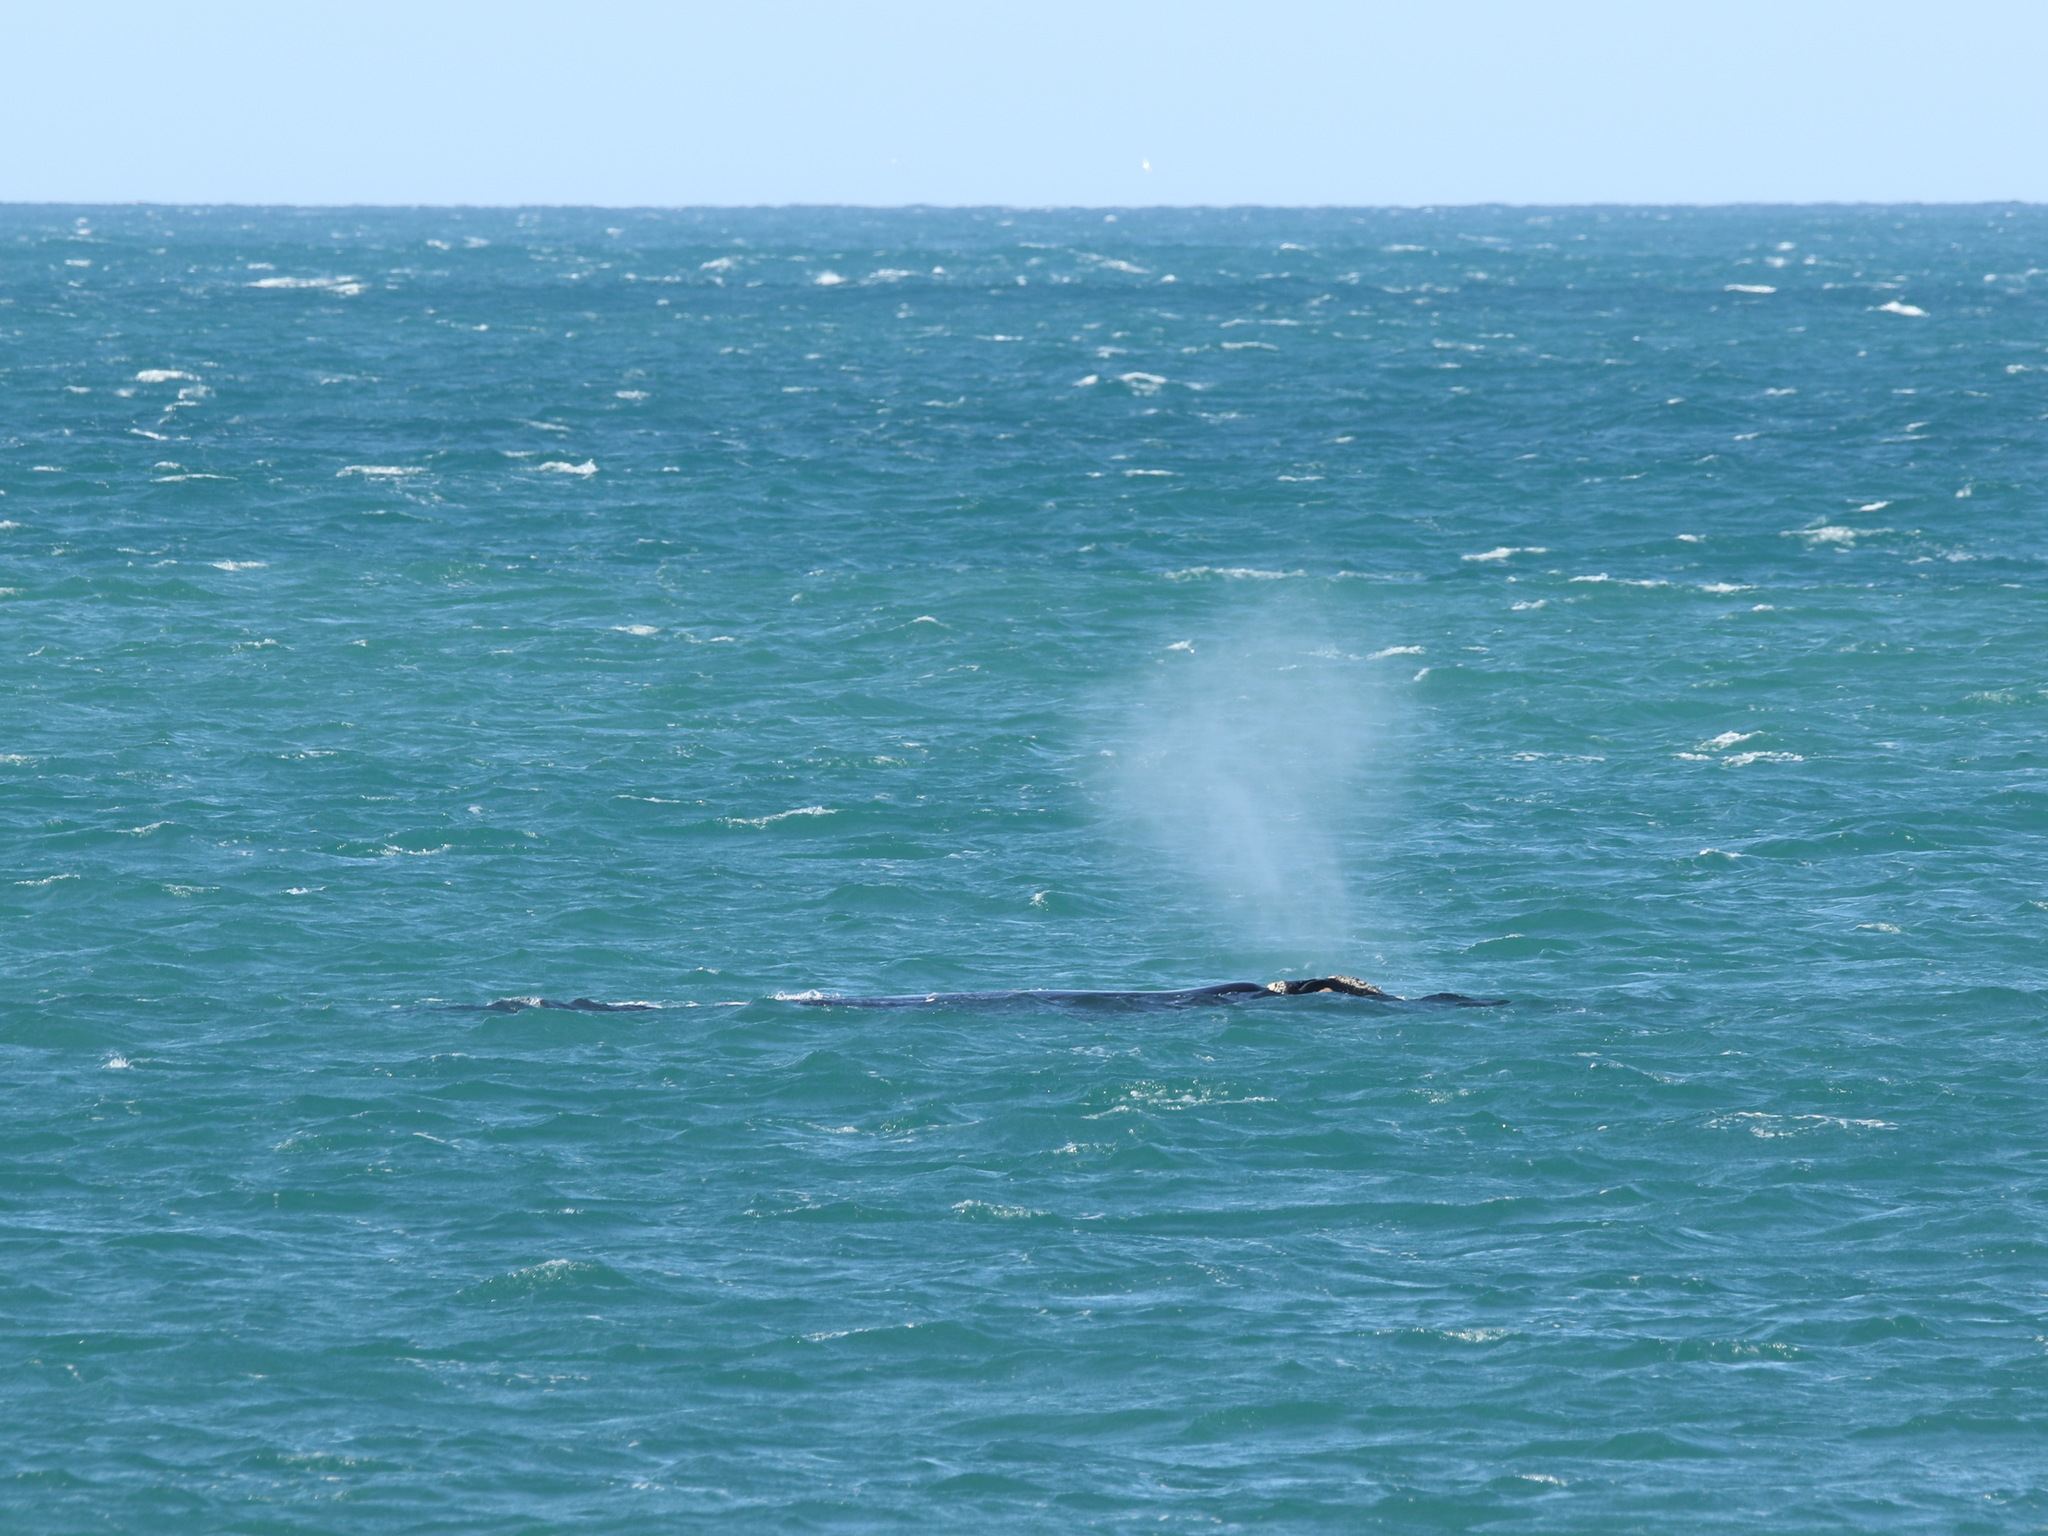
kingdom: Animalia
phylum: Chordata
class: Mammalia
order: Cetacea
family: Balaenidae
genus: Eubalaena
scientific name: Eubalaena australis
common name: Southern right whale
